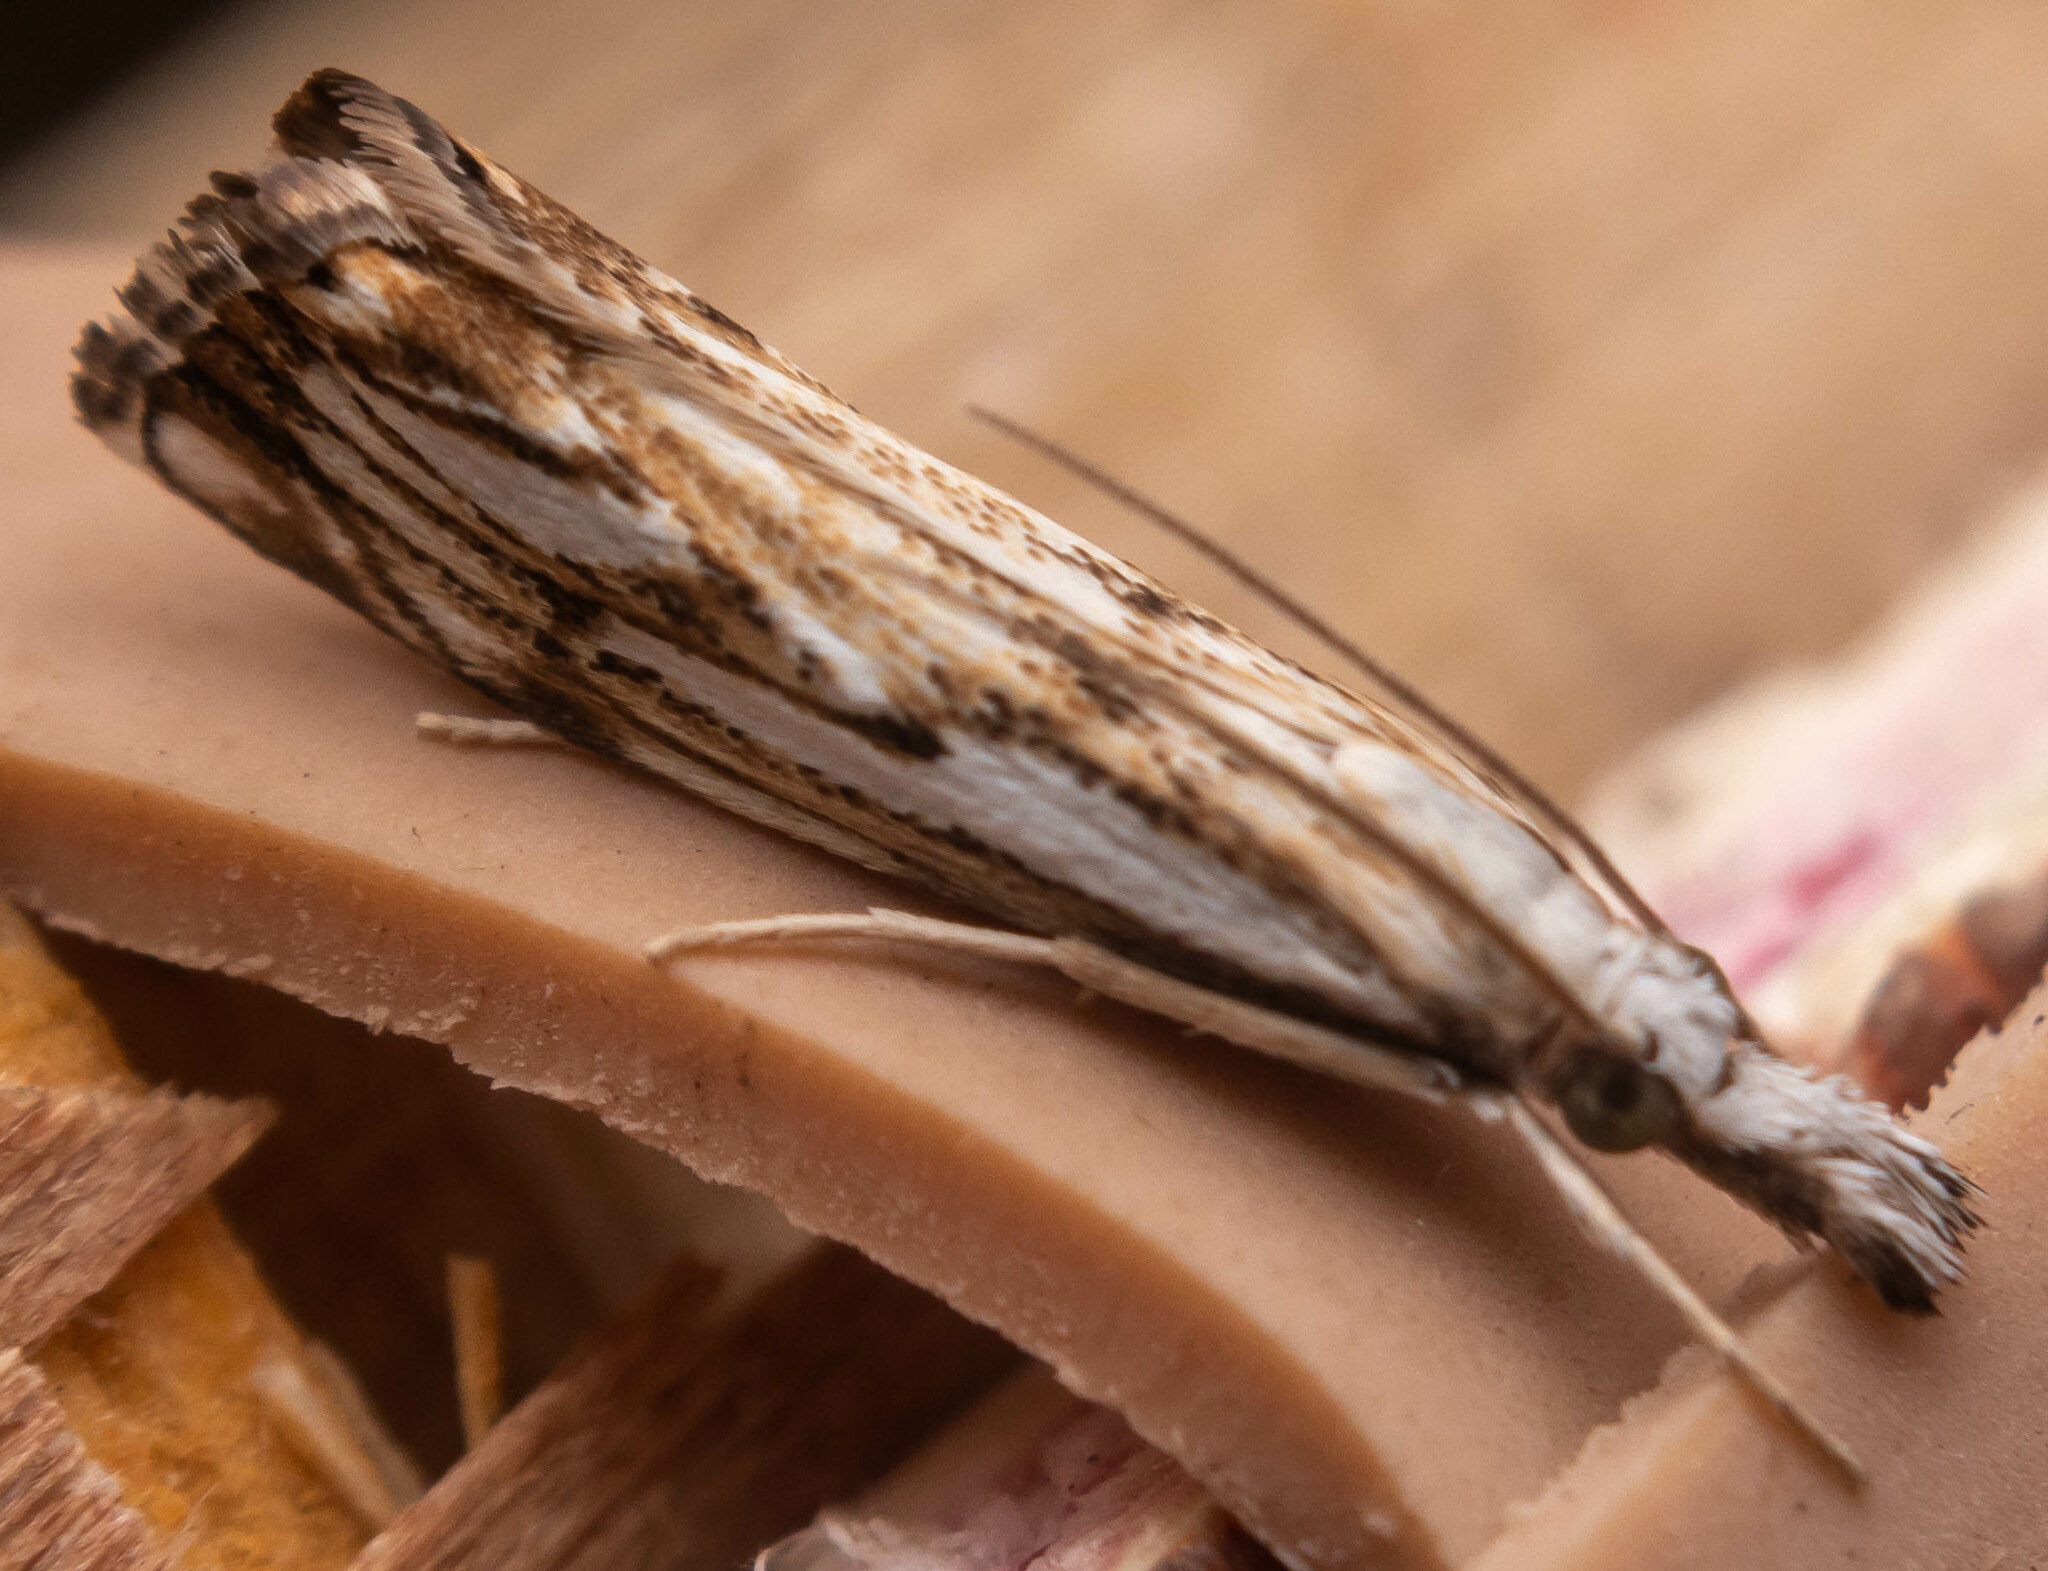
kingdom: Animalia
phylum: Arthropoda
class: Insecta
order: Lepidoptera
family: Crambidae
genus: Catoptria
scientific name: Catoptria falsella
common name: Chequered grass-veneer
